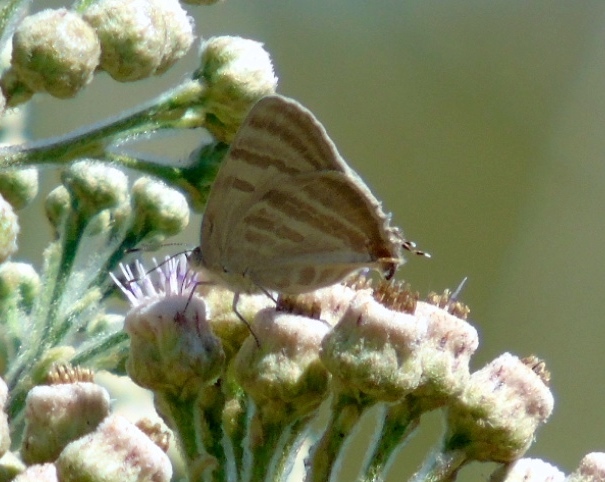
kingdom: Animalia
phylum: Arthropoda
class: Insecta
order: Lepidoptera
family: Lycaenidae
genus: Dolymorpha
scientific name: Dolymorpha jada
